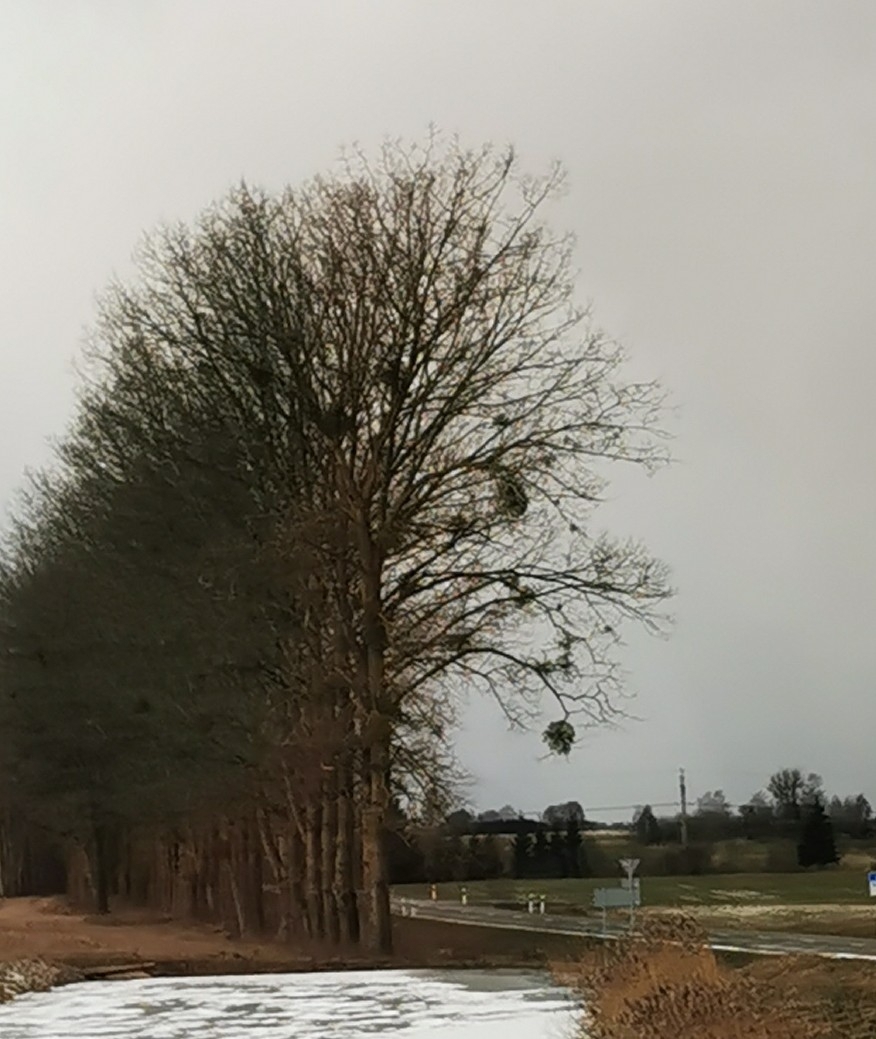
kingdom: Plantae
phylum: Tracheophyta
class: Magnoliopsida
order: Santalales
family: Viscaceae
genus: Viscum
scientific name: Viscum album
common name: Mistletoe
